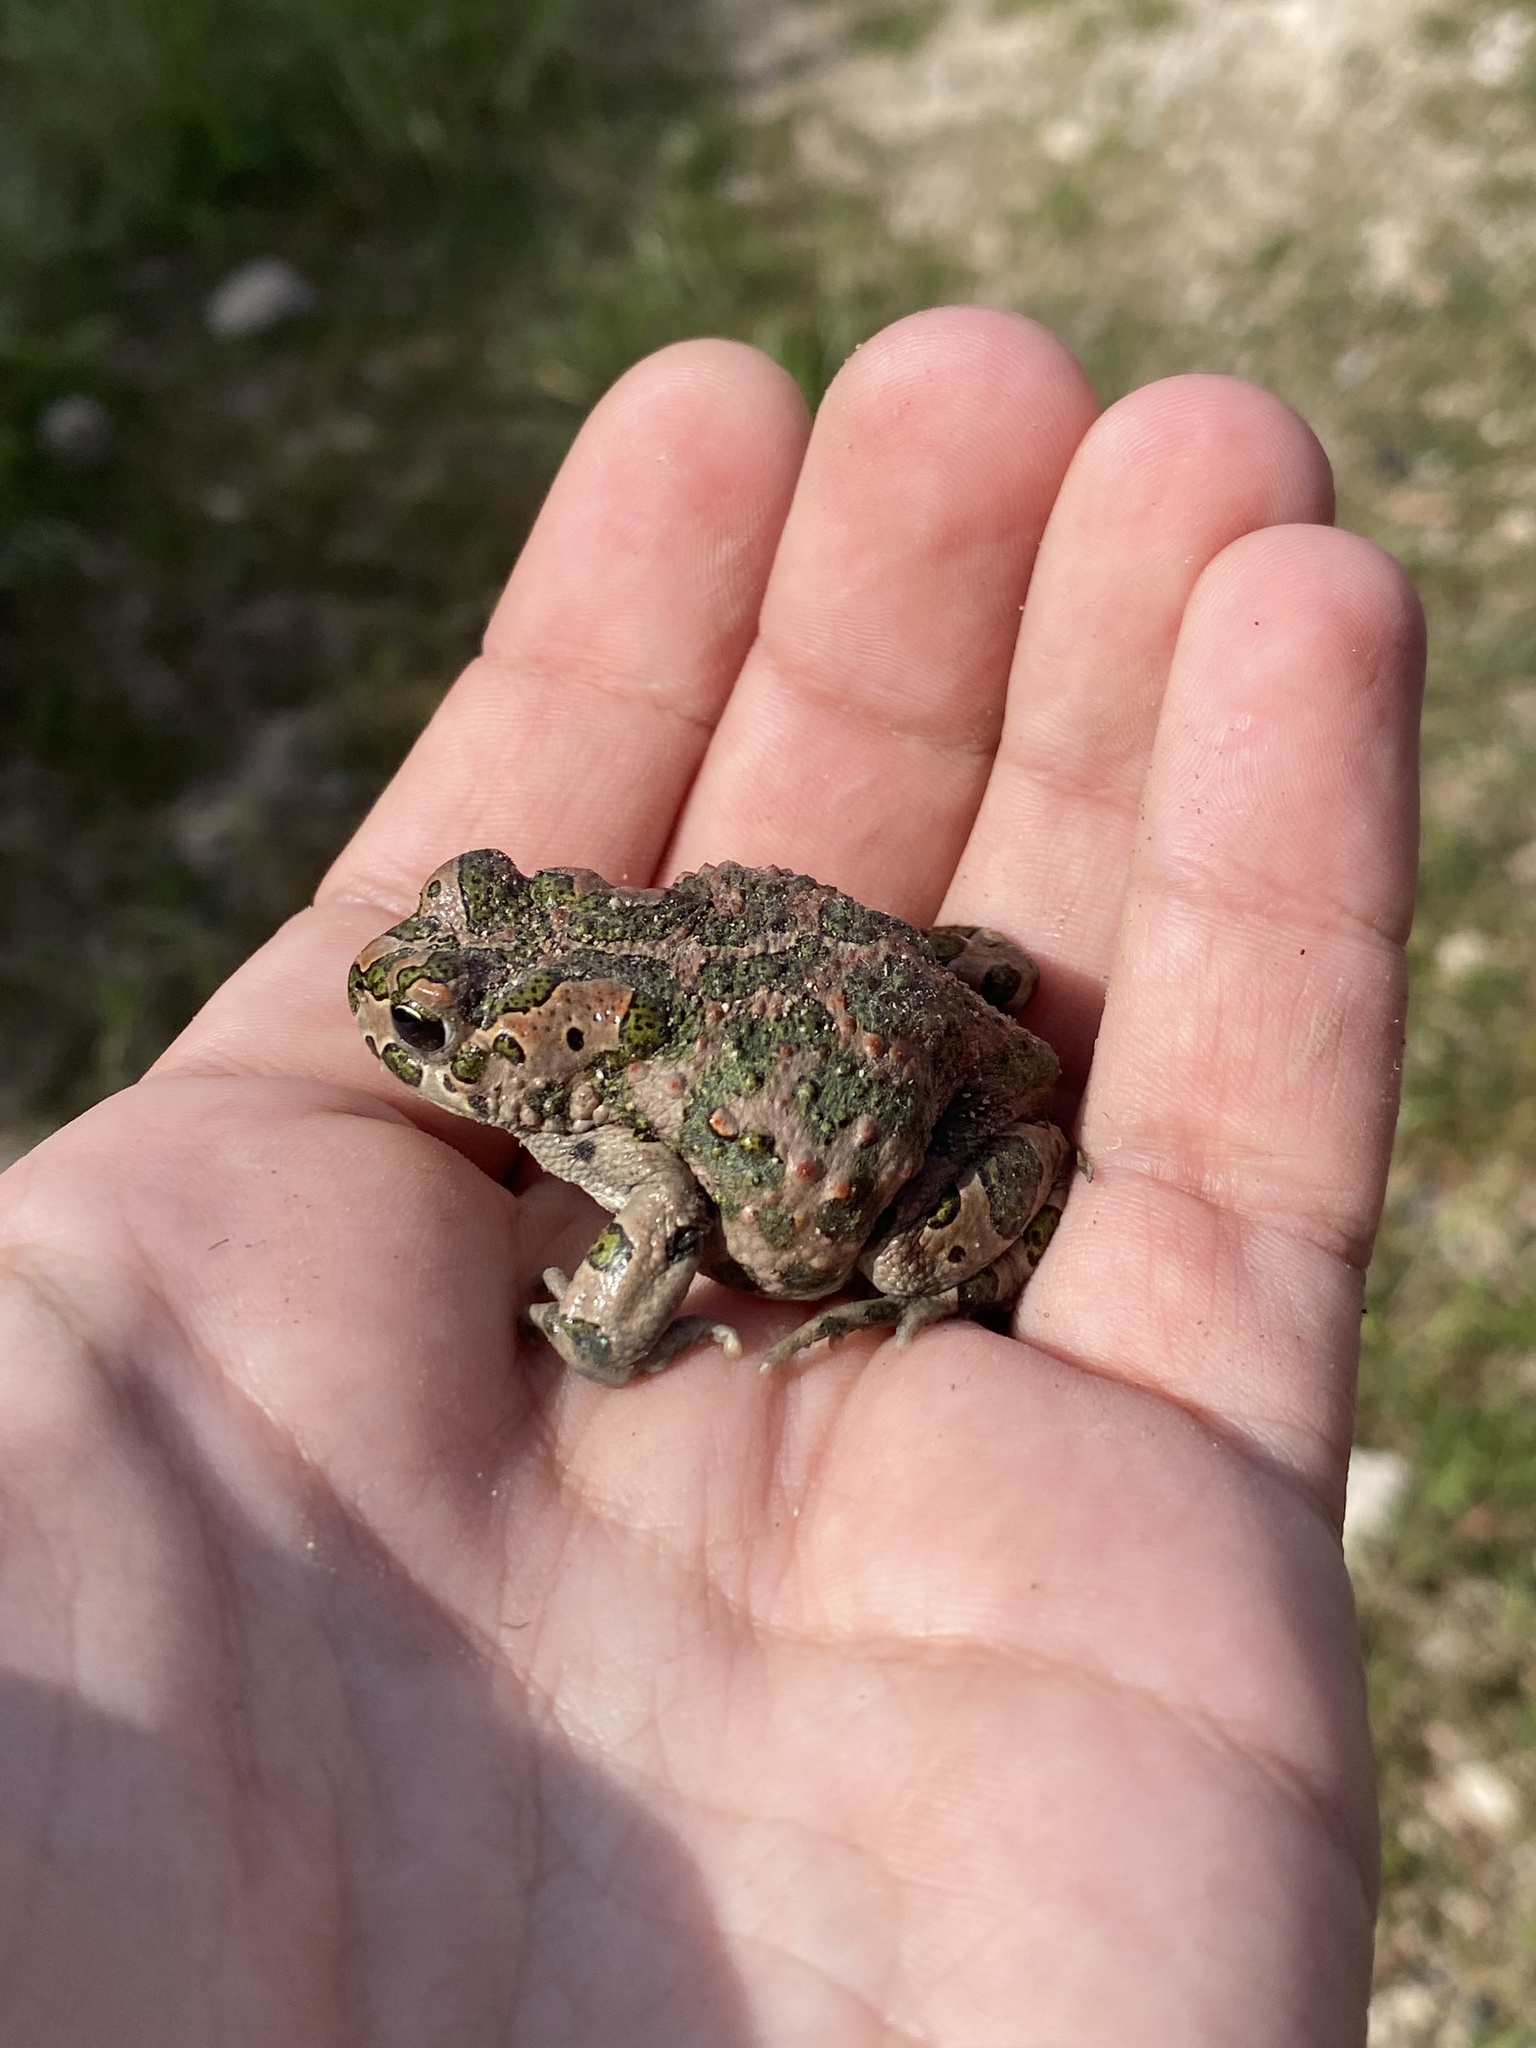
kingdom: Animalia
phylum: Chordata
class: Amphibia
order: Anura
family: Bufonidae
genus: Bufotes
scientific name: Bufotes viridis
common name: European green toad
